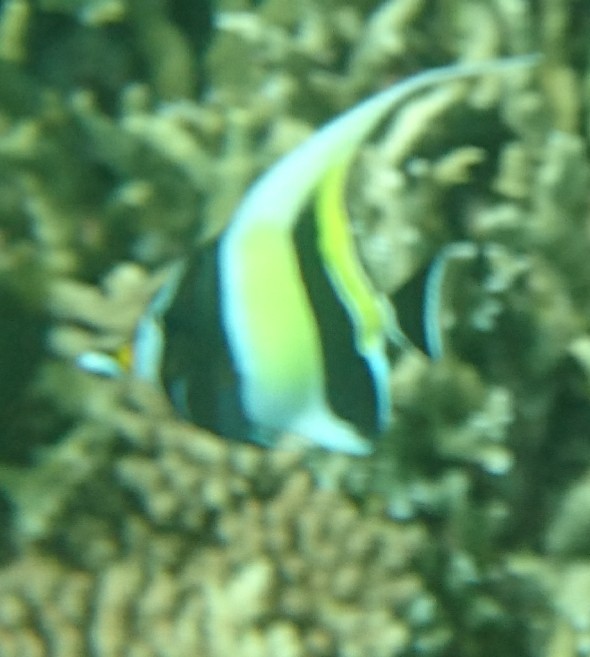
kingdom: Animalia
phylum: Chordata
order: Perciformes
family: Zanclidae
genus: Zanclus
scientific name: Zanclus cornutus
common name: Moorish idol
